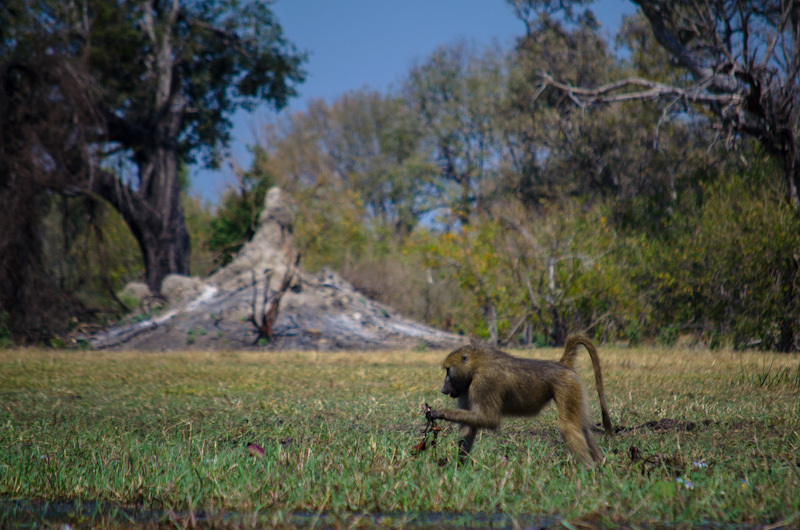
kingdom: Animalia
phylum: Chordata
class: Mammalia
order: Primates
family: Cercopithecidae
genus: Papio
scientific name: Papio ursinus
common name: Chacma baboon
